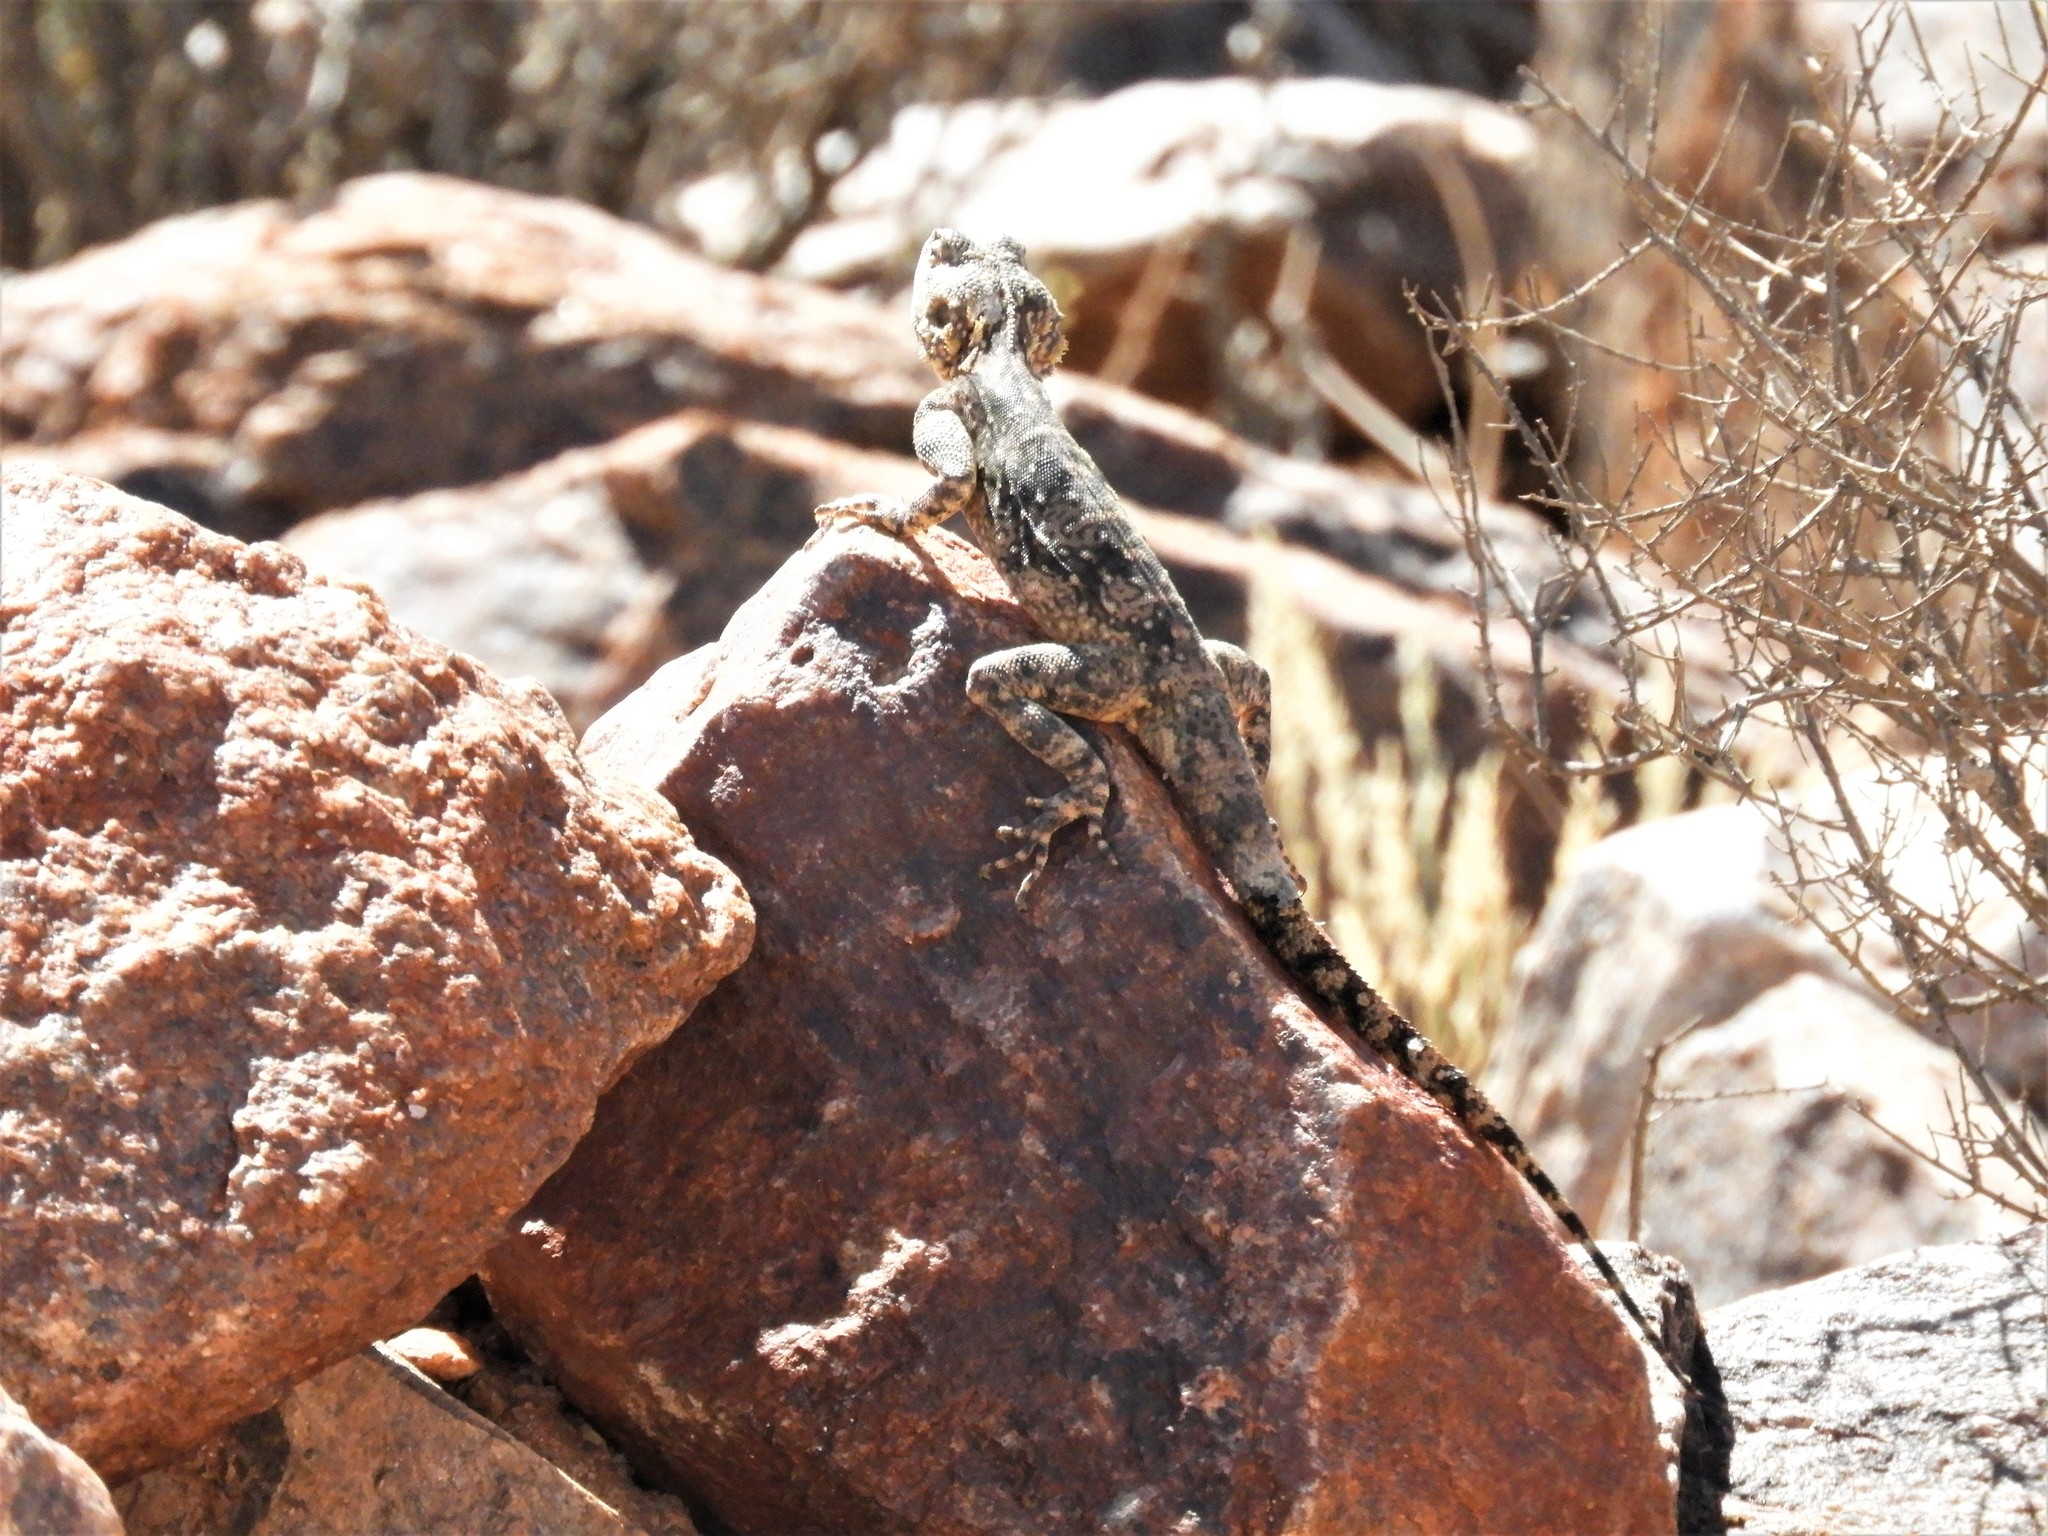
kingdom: Animalia
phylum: Chordata
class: Squamata
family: Agamidae
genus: Agama
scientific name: Agama atra
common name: Southern african rock agama
